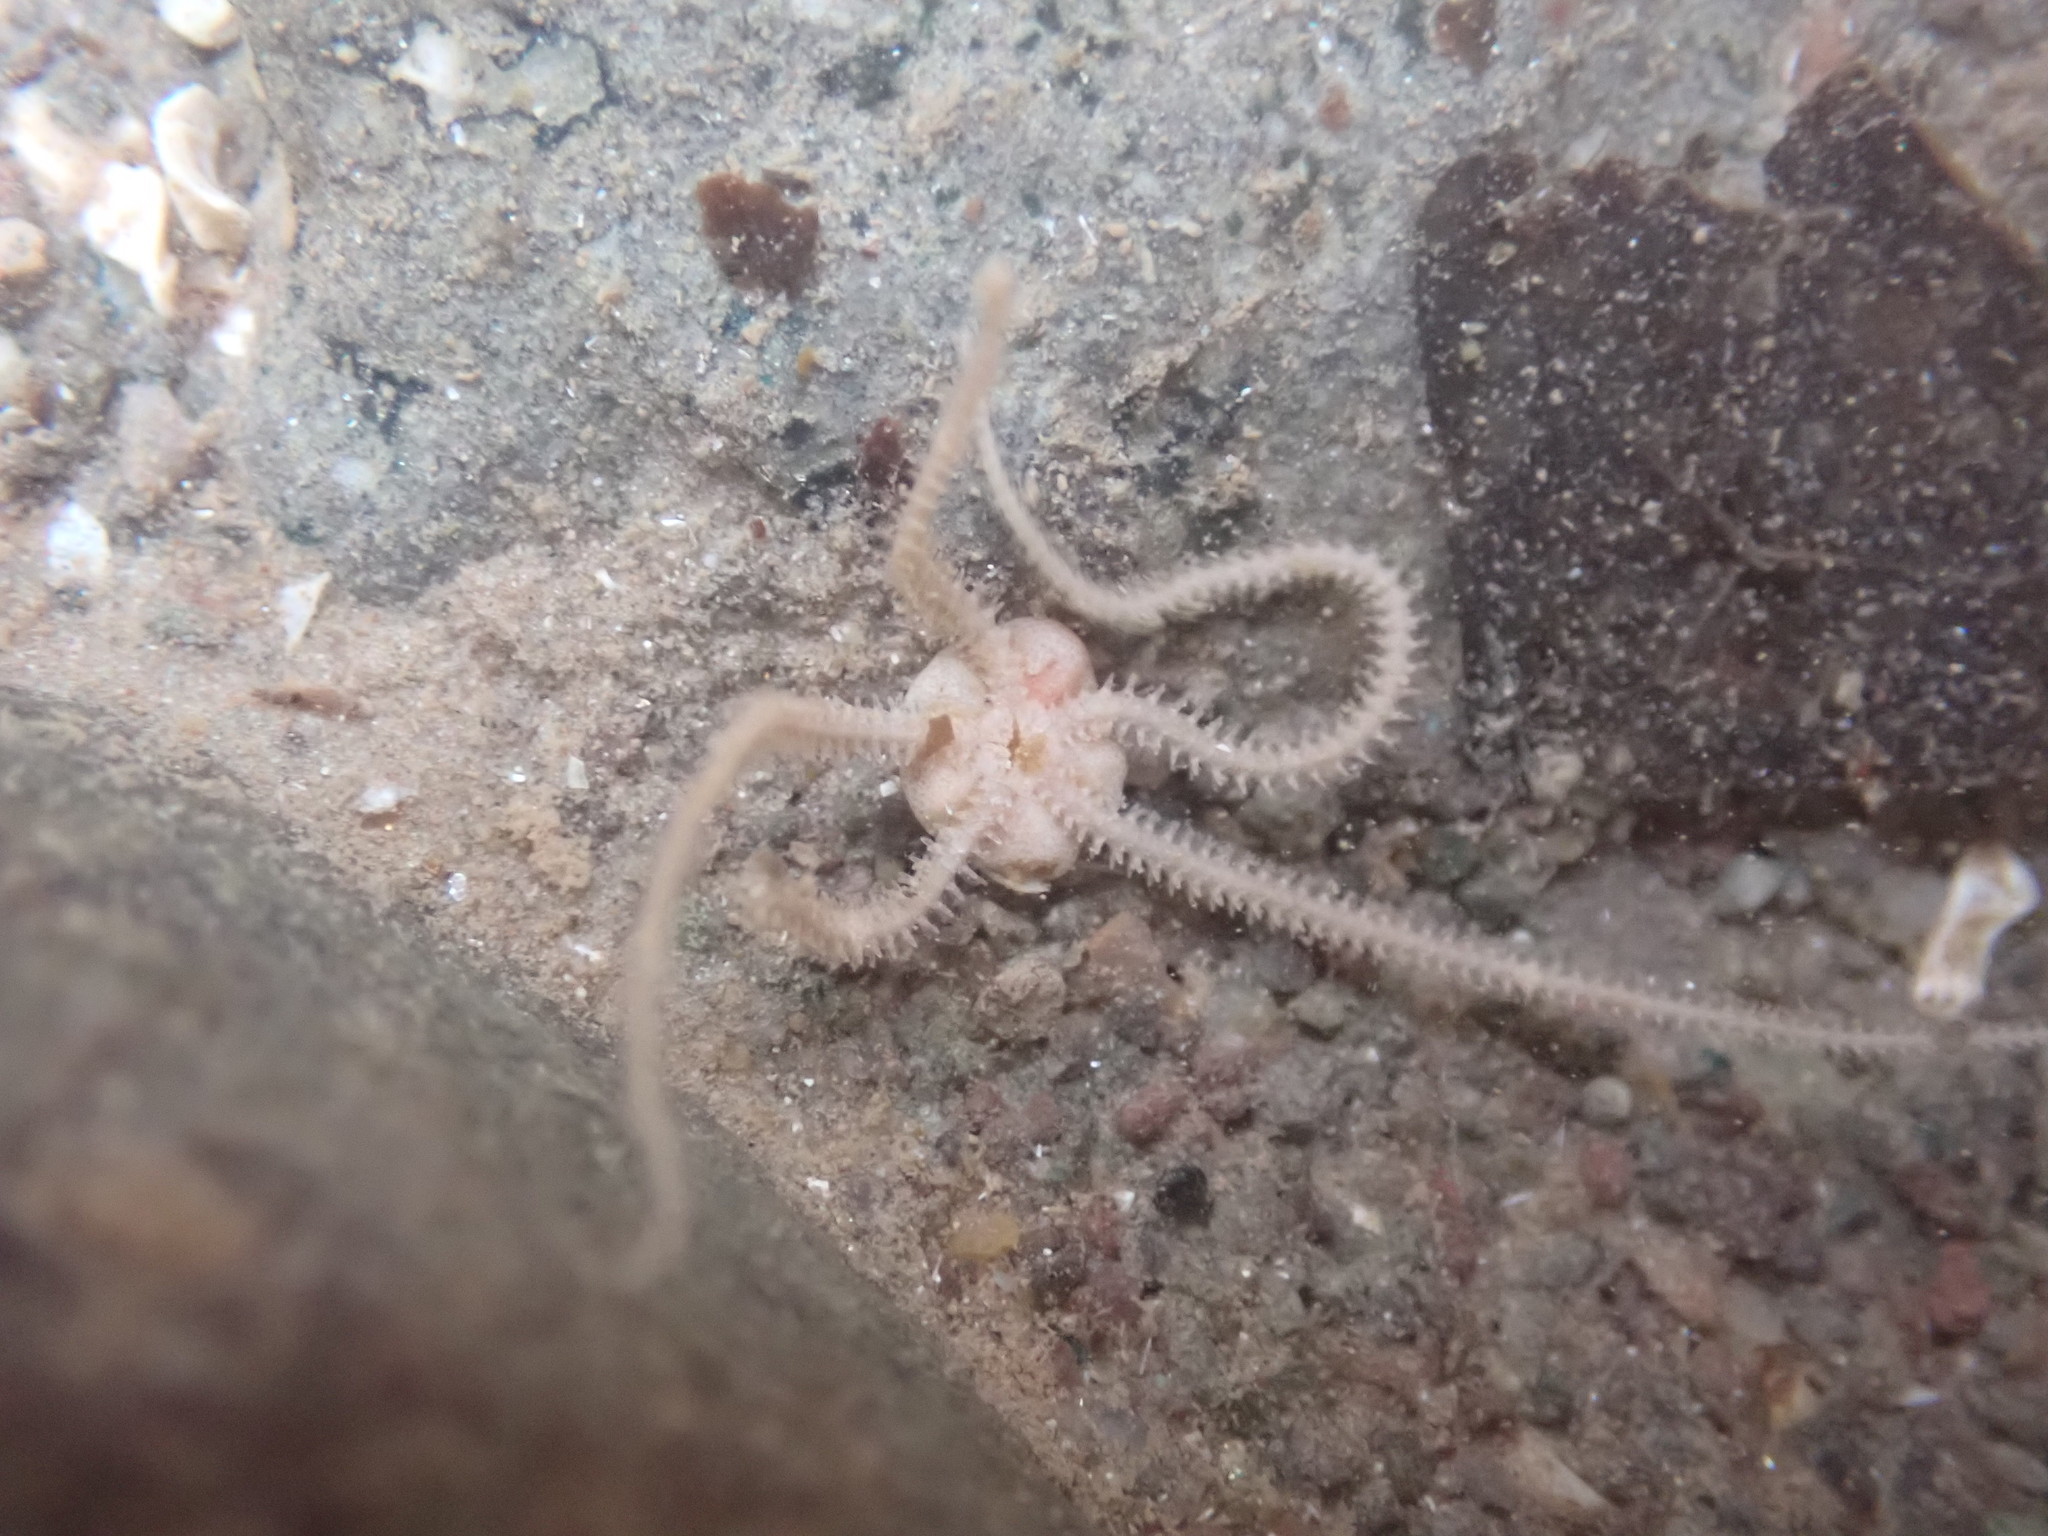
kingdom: Animalia
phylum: Echinodermata
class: Ophiuroidea
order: Amphilepidida
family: Ophiopholidae
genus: Ophiopholis
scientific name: Ophiopholis aculeata
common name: Crevice brittlestar
